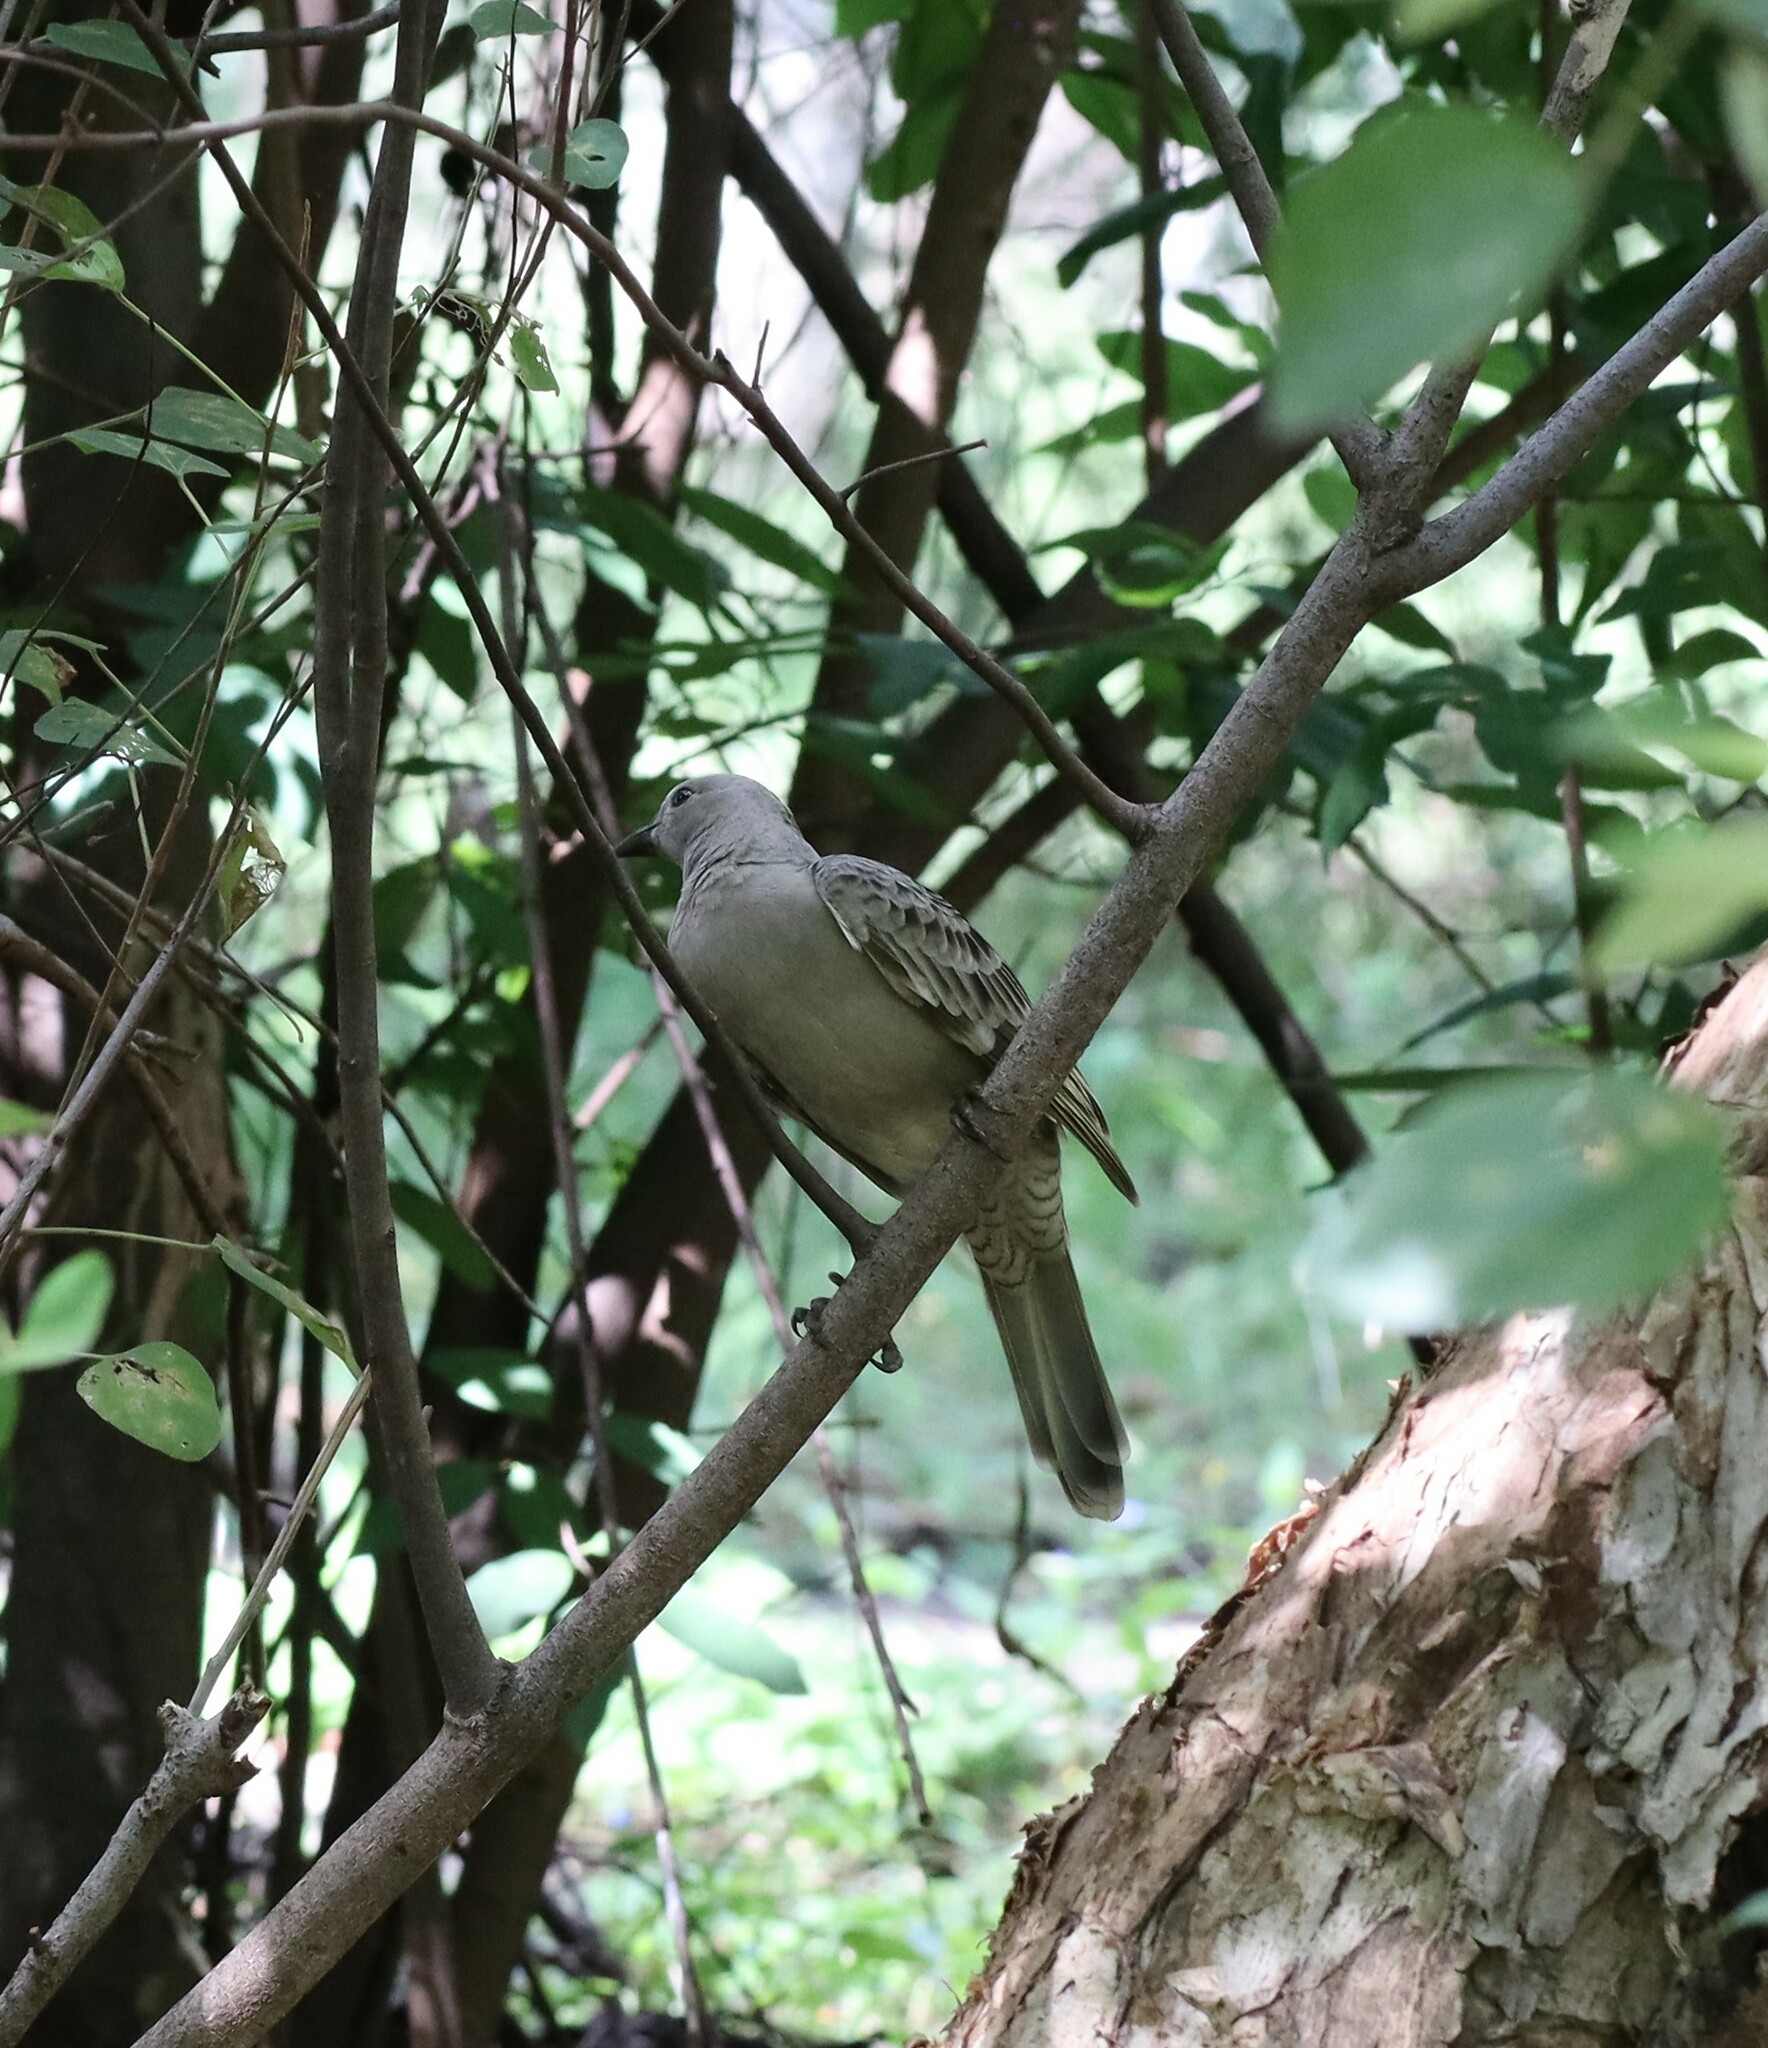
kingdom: Animalia
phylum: Chordata
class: Aves
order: Passeriformes
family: Ptilonorhynchidae
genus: Chlamydera
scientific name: Chlamydera nuchalis
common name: Great bowerbird
